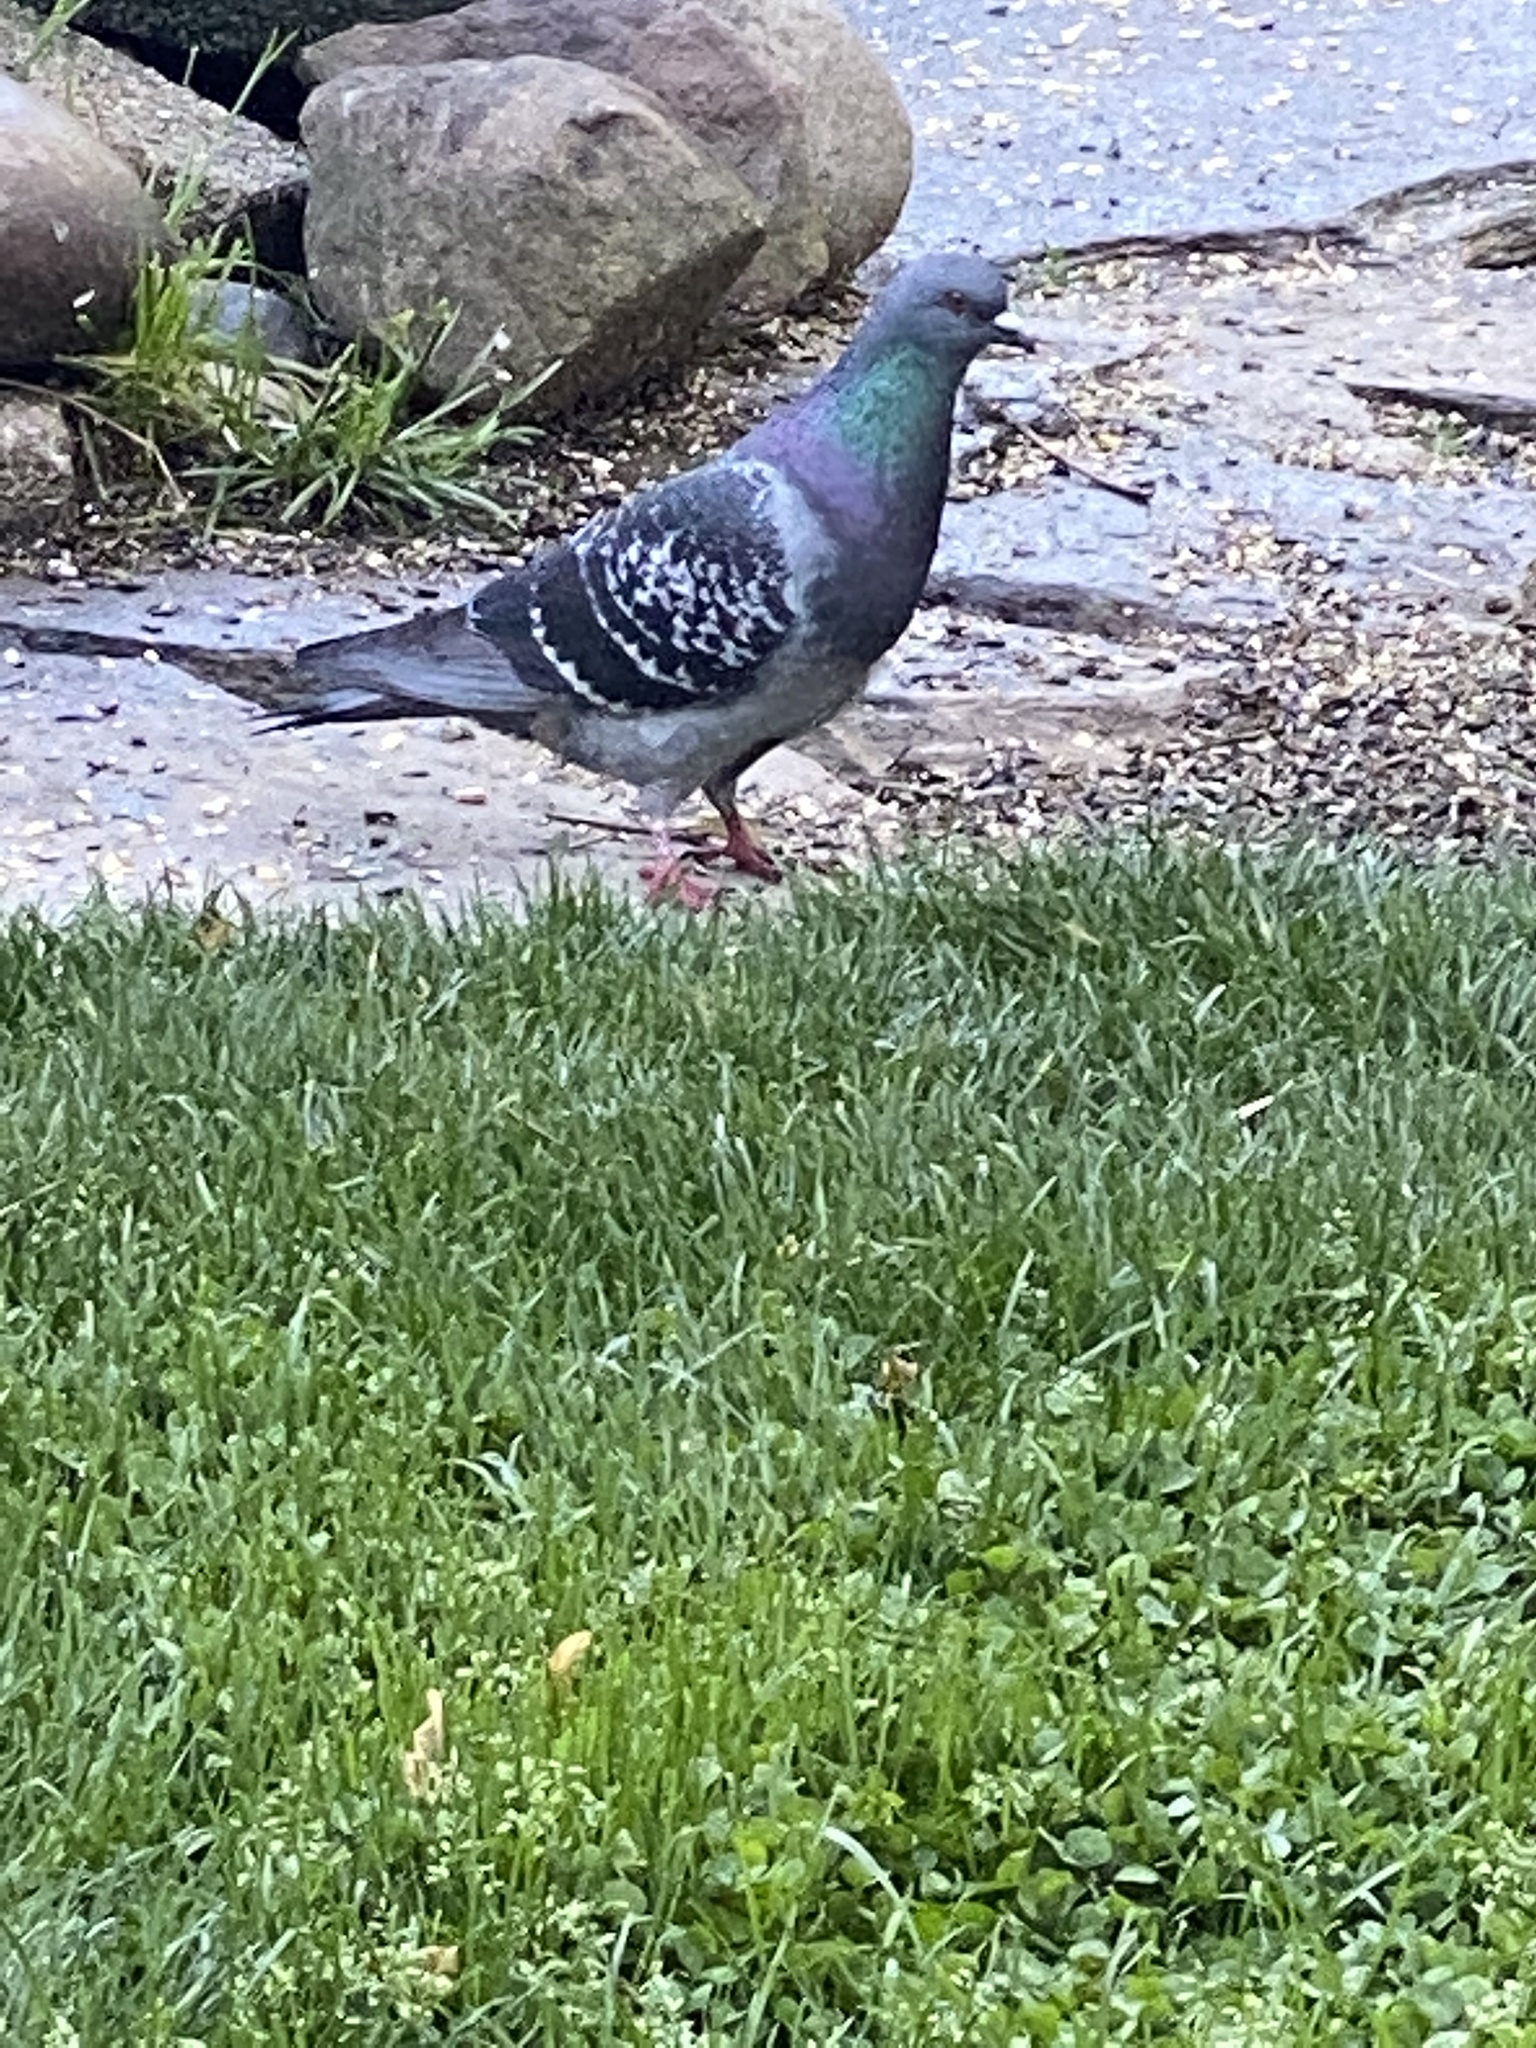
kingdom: Animalia
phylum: Chordata
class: Aves
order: Columbiformes
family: Columbidae
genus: Columba
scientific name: Columba livia
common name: Rock pigeon
